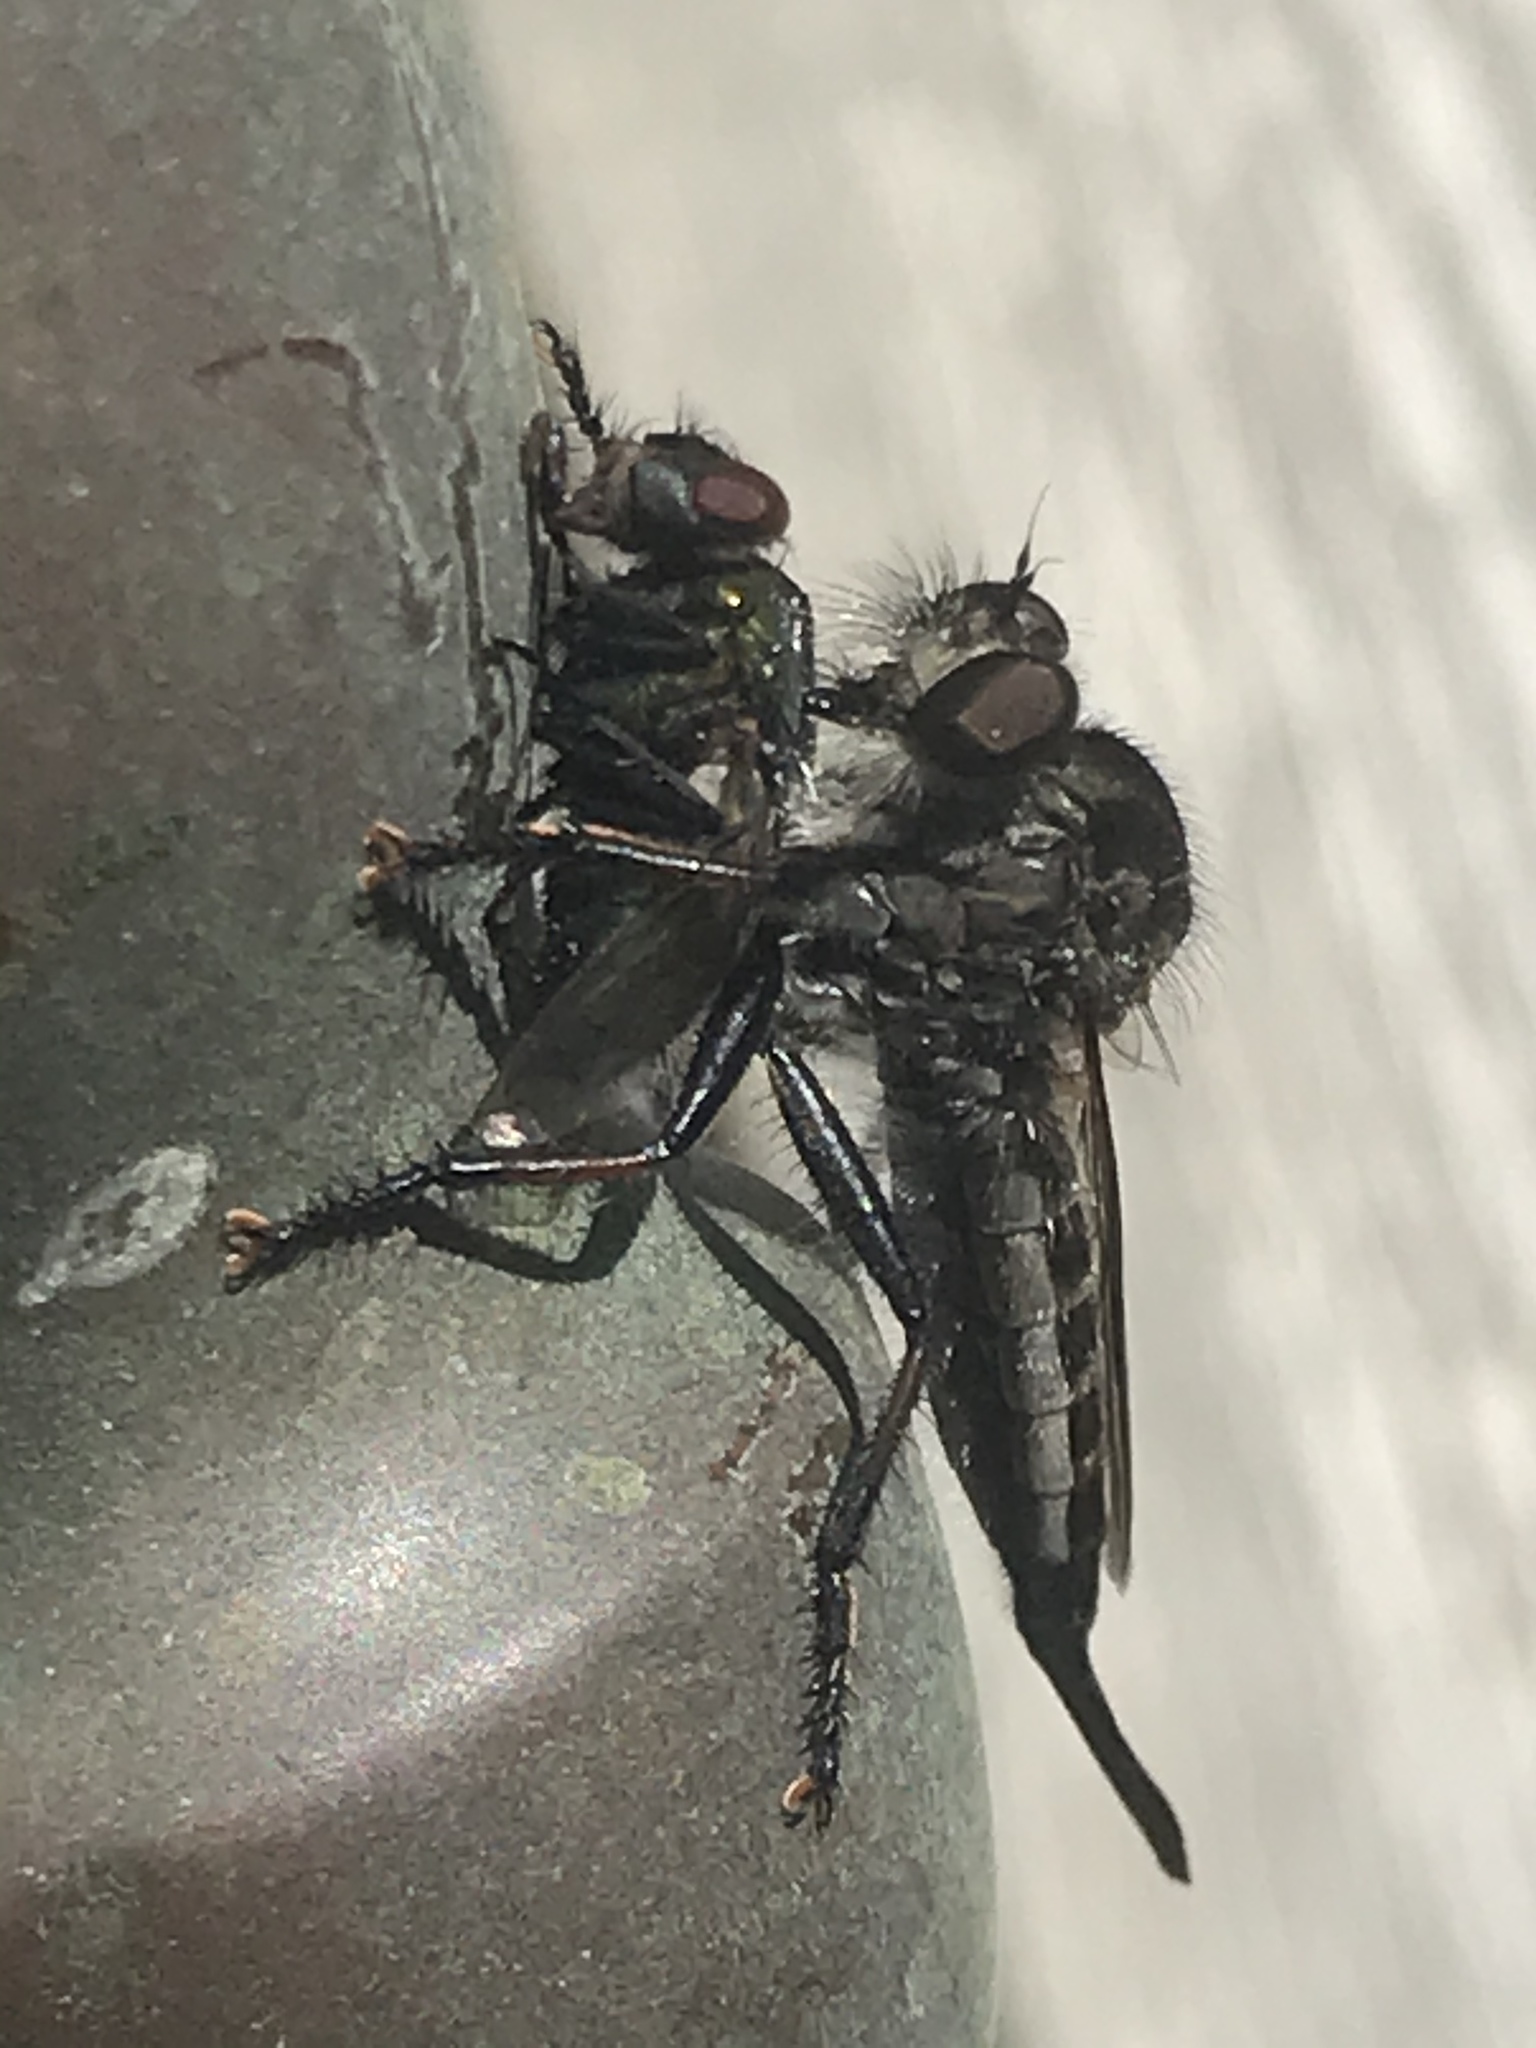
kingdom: Animalia
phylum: Arthropoda
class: Insecta
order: Diptera
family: Asilidae
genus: Efferia
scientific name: Efferia aestuans
